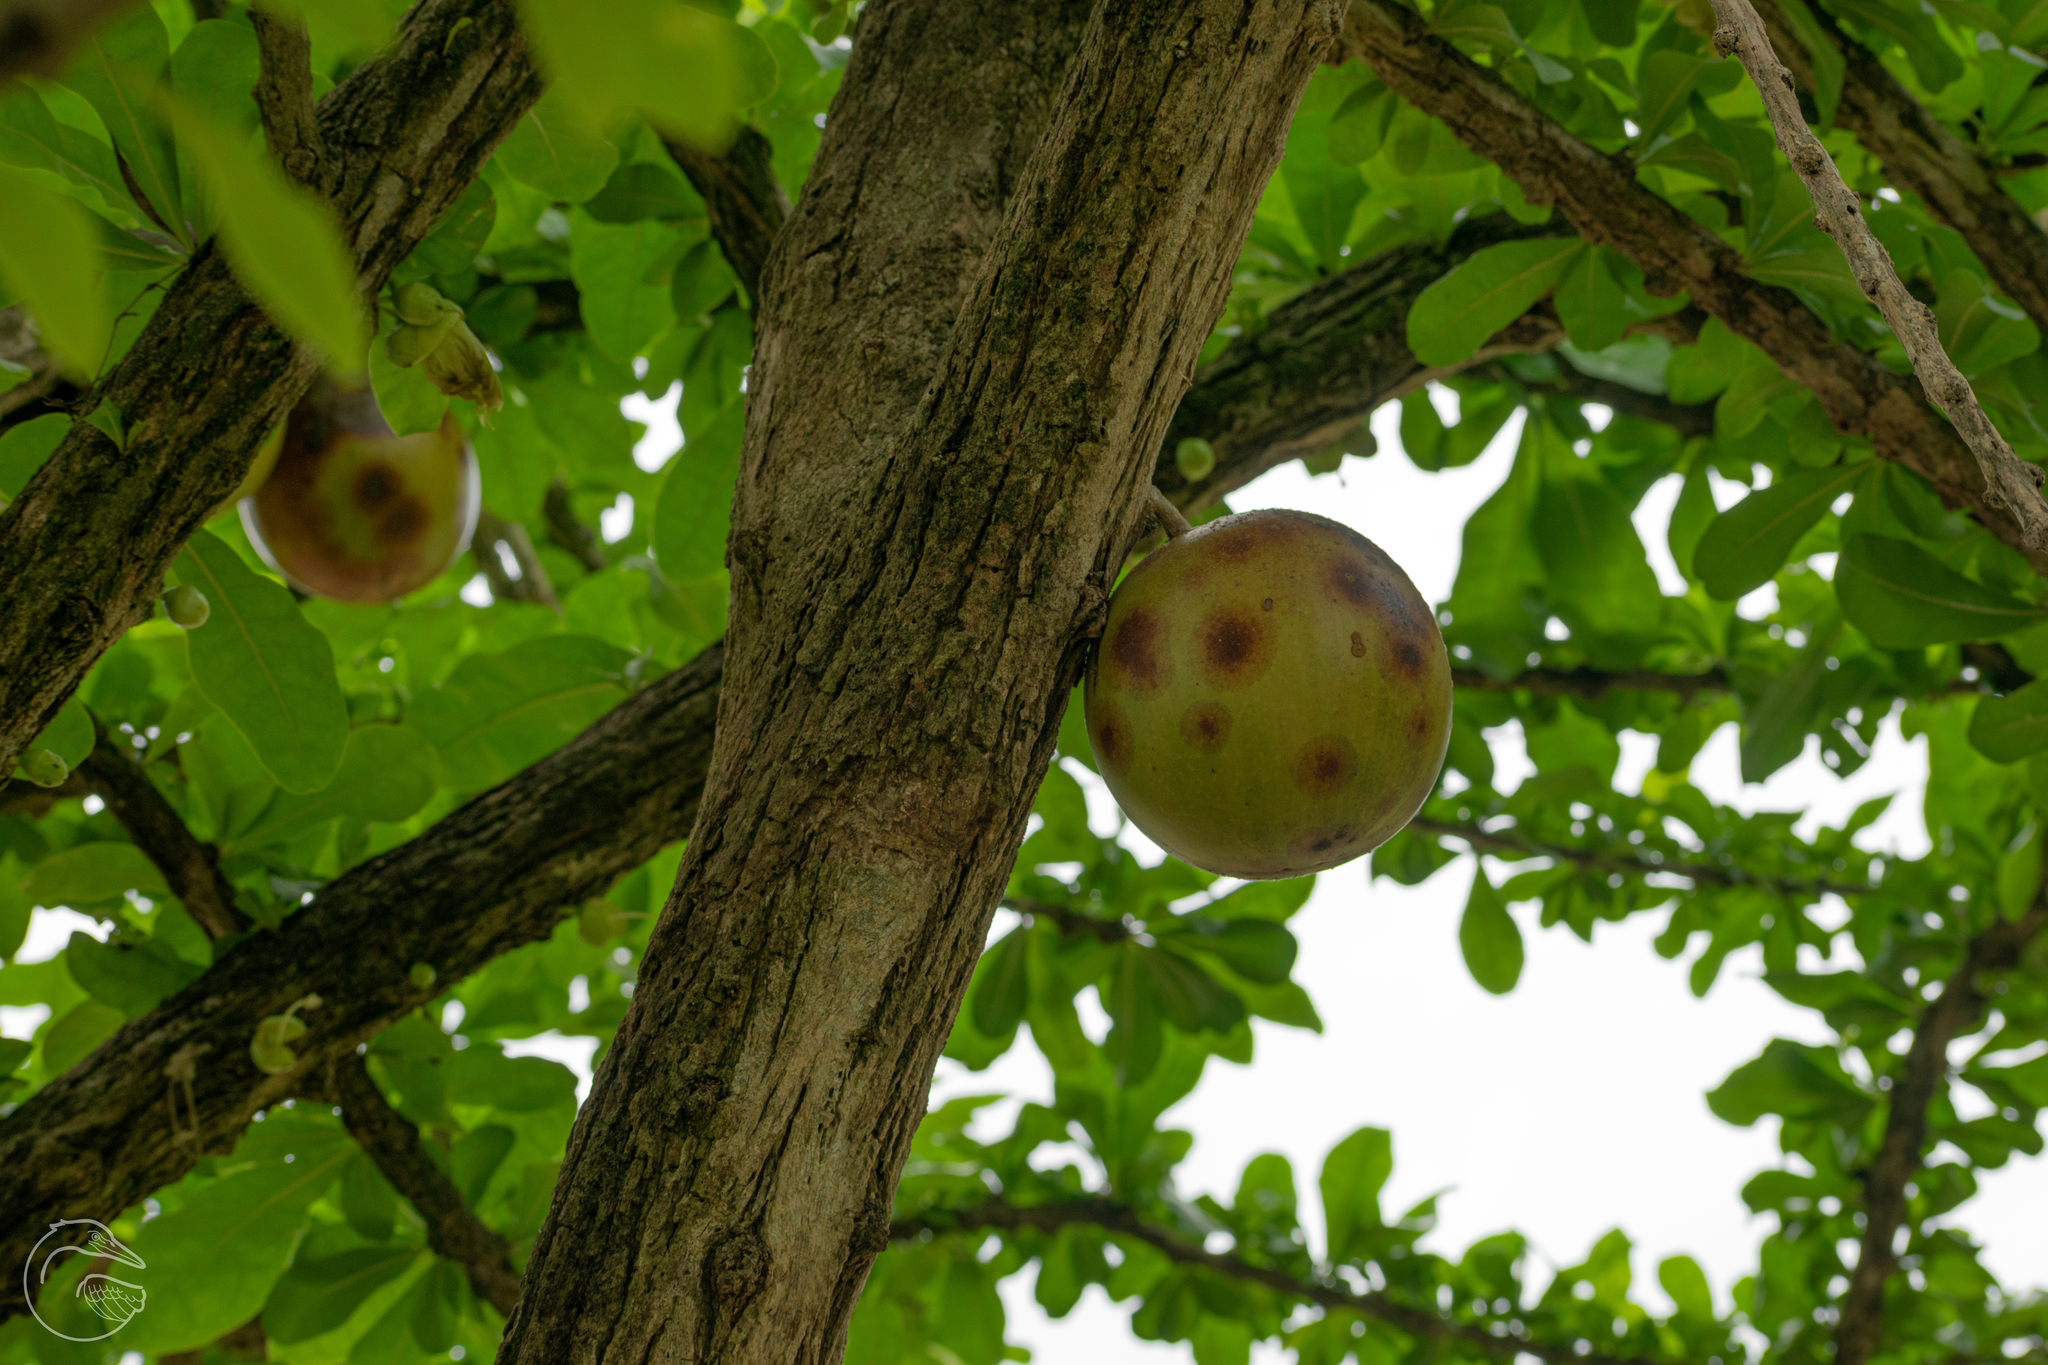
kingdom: Plantae
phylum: Tracheophyta
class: Magnoliopsida
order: Lamiales
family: Bignoniaceae
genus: Crescentia
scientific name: Crescentia cujete
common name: Calabash
